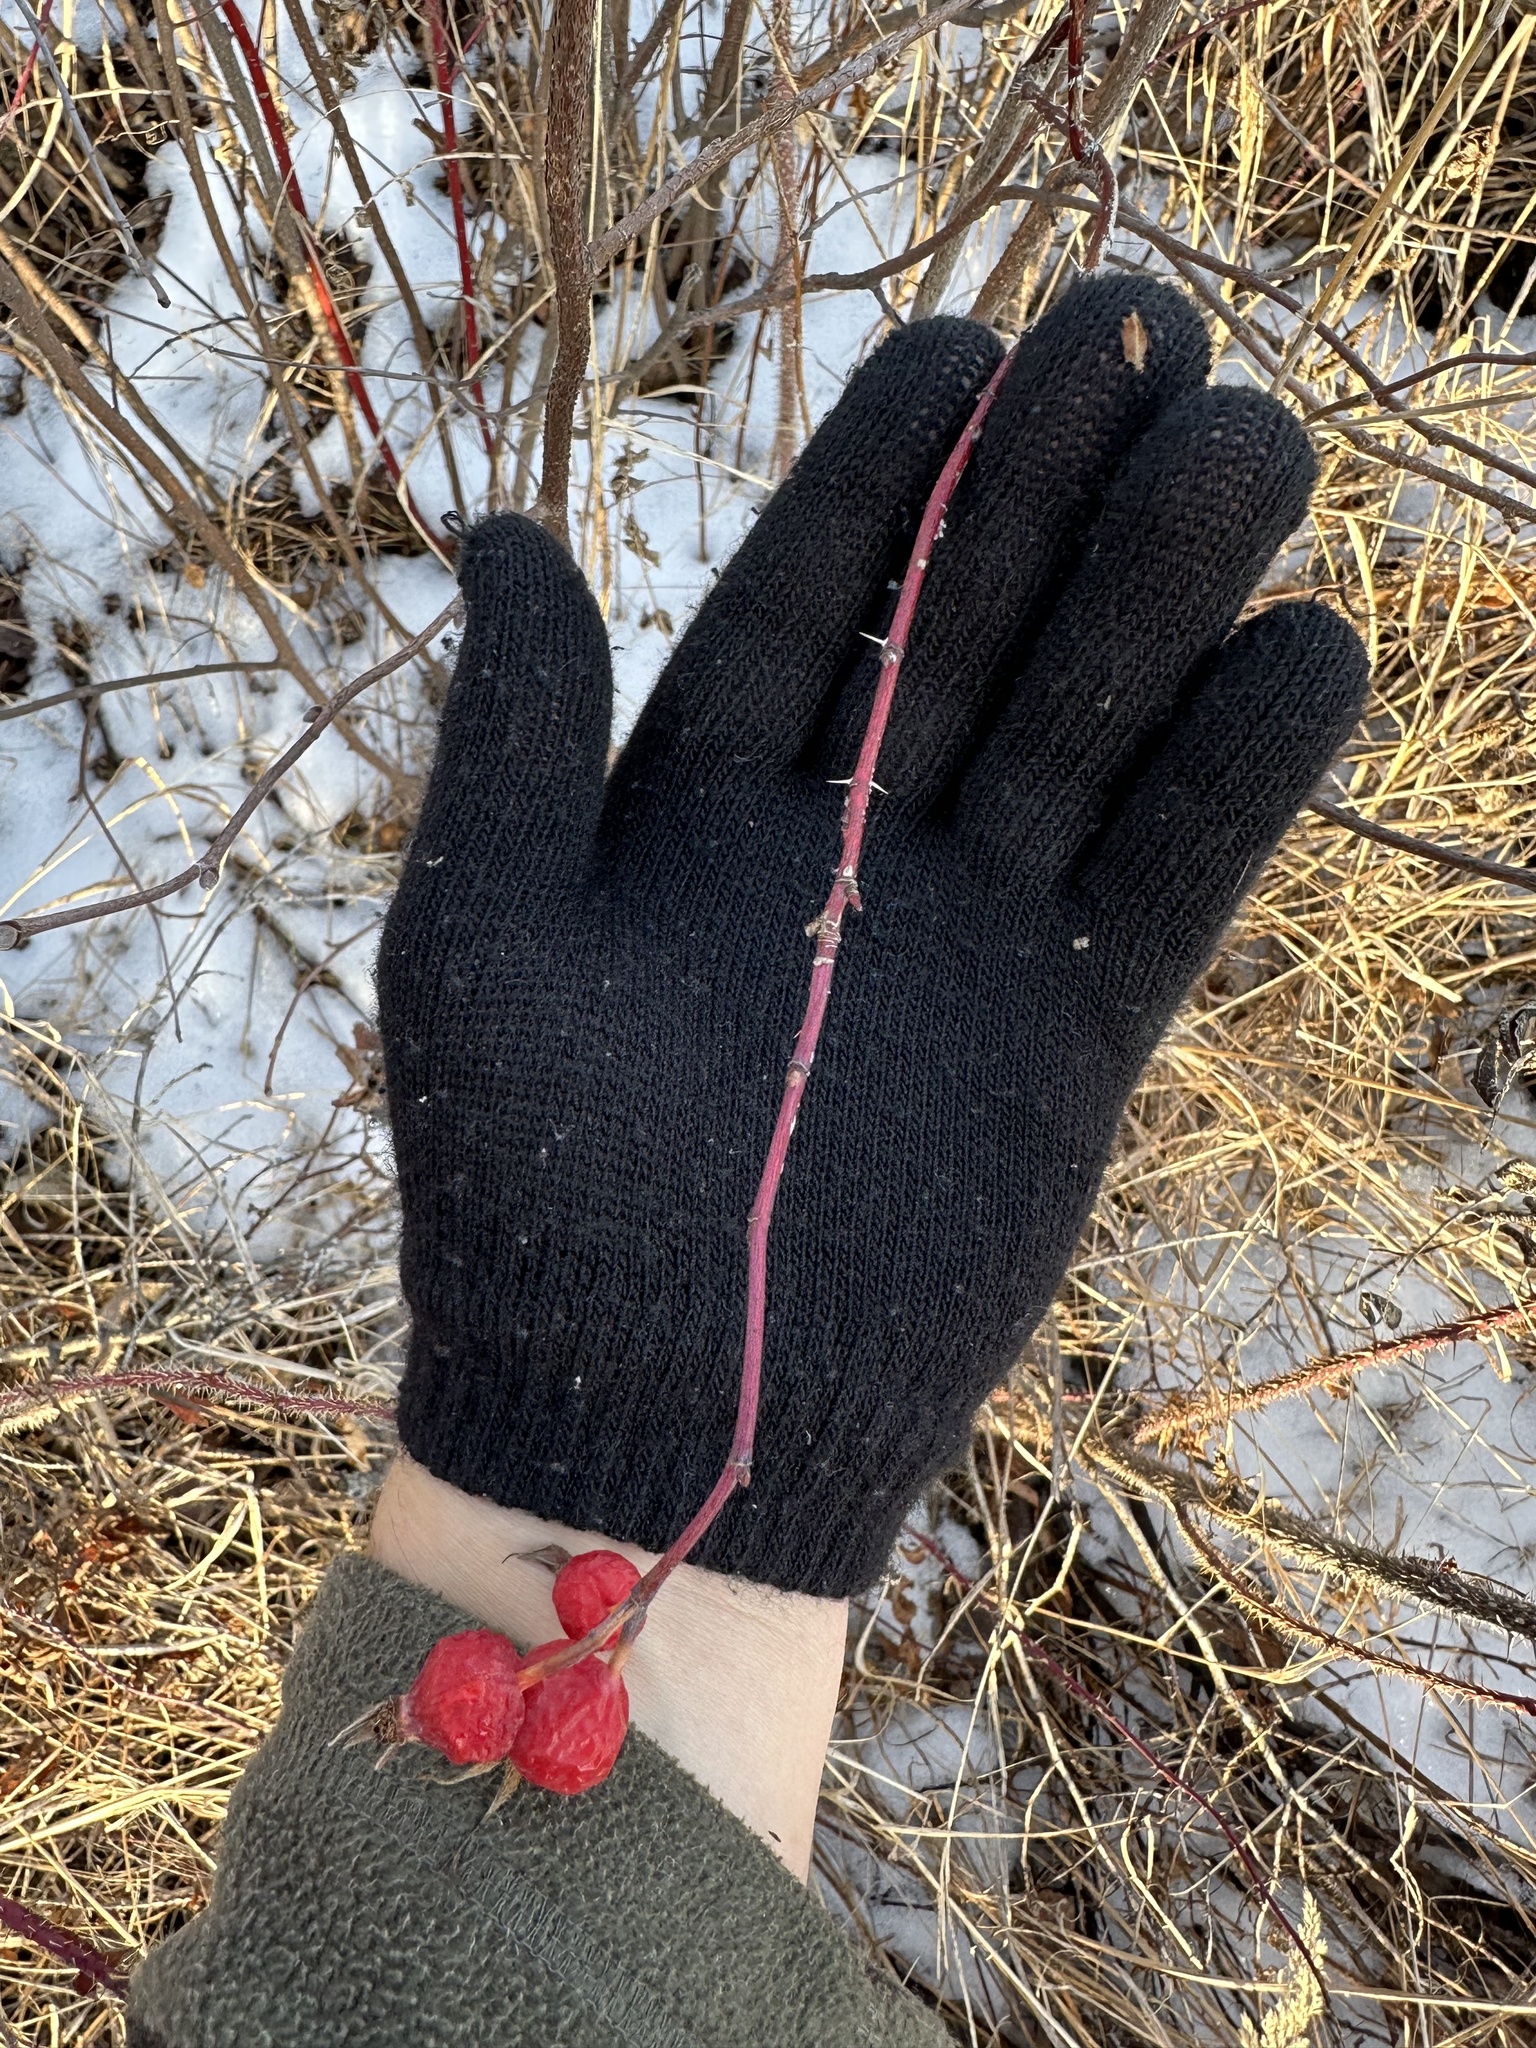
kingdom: Plantae
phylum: Tracheophyta
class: Magnoliopsida
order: Rosales
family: Rosaceae
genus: Rosa
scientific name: Rosa woodsii
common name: Woods's rose
